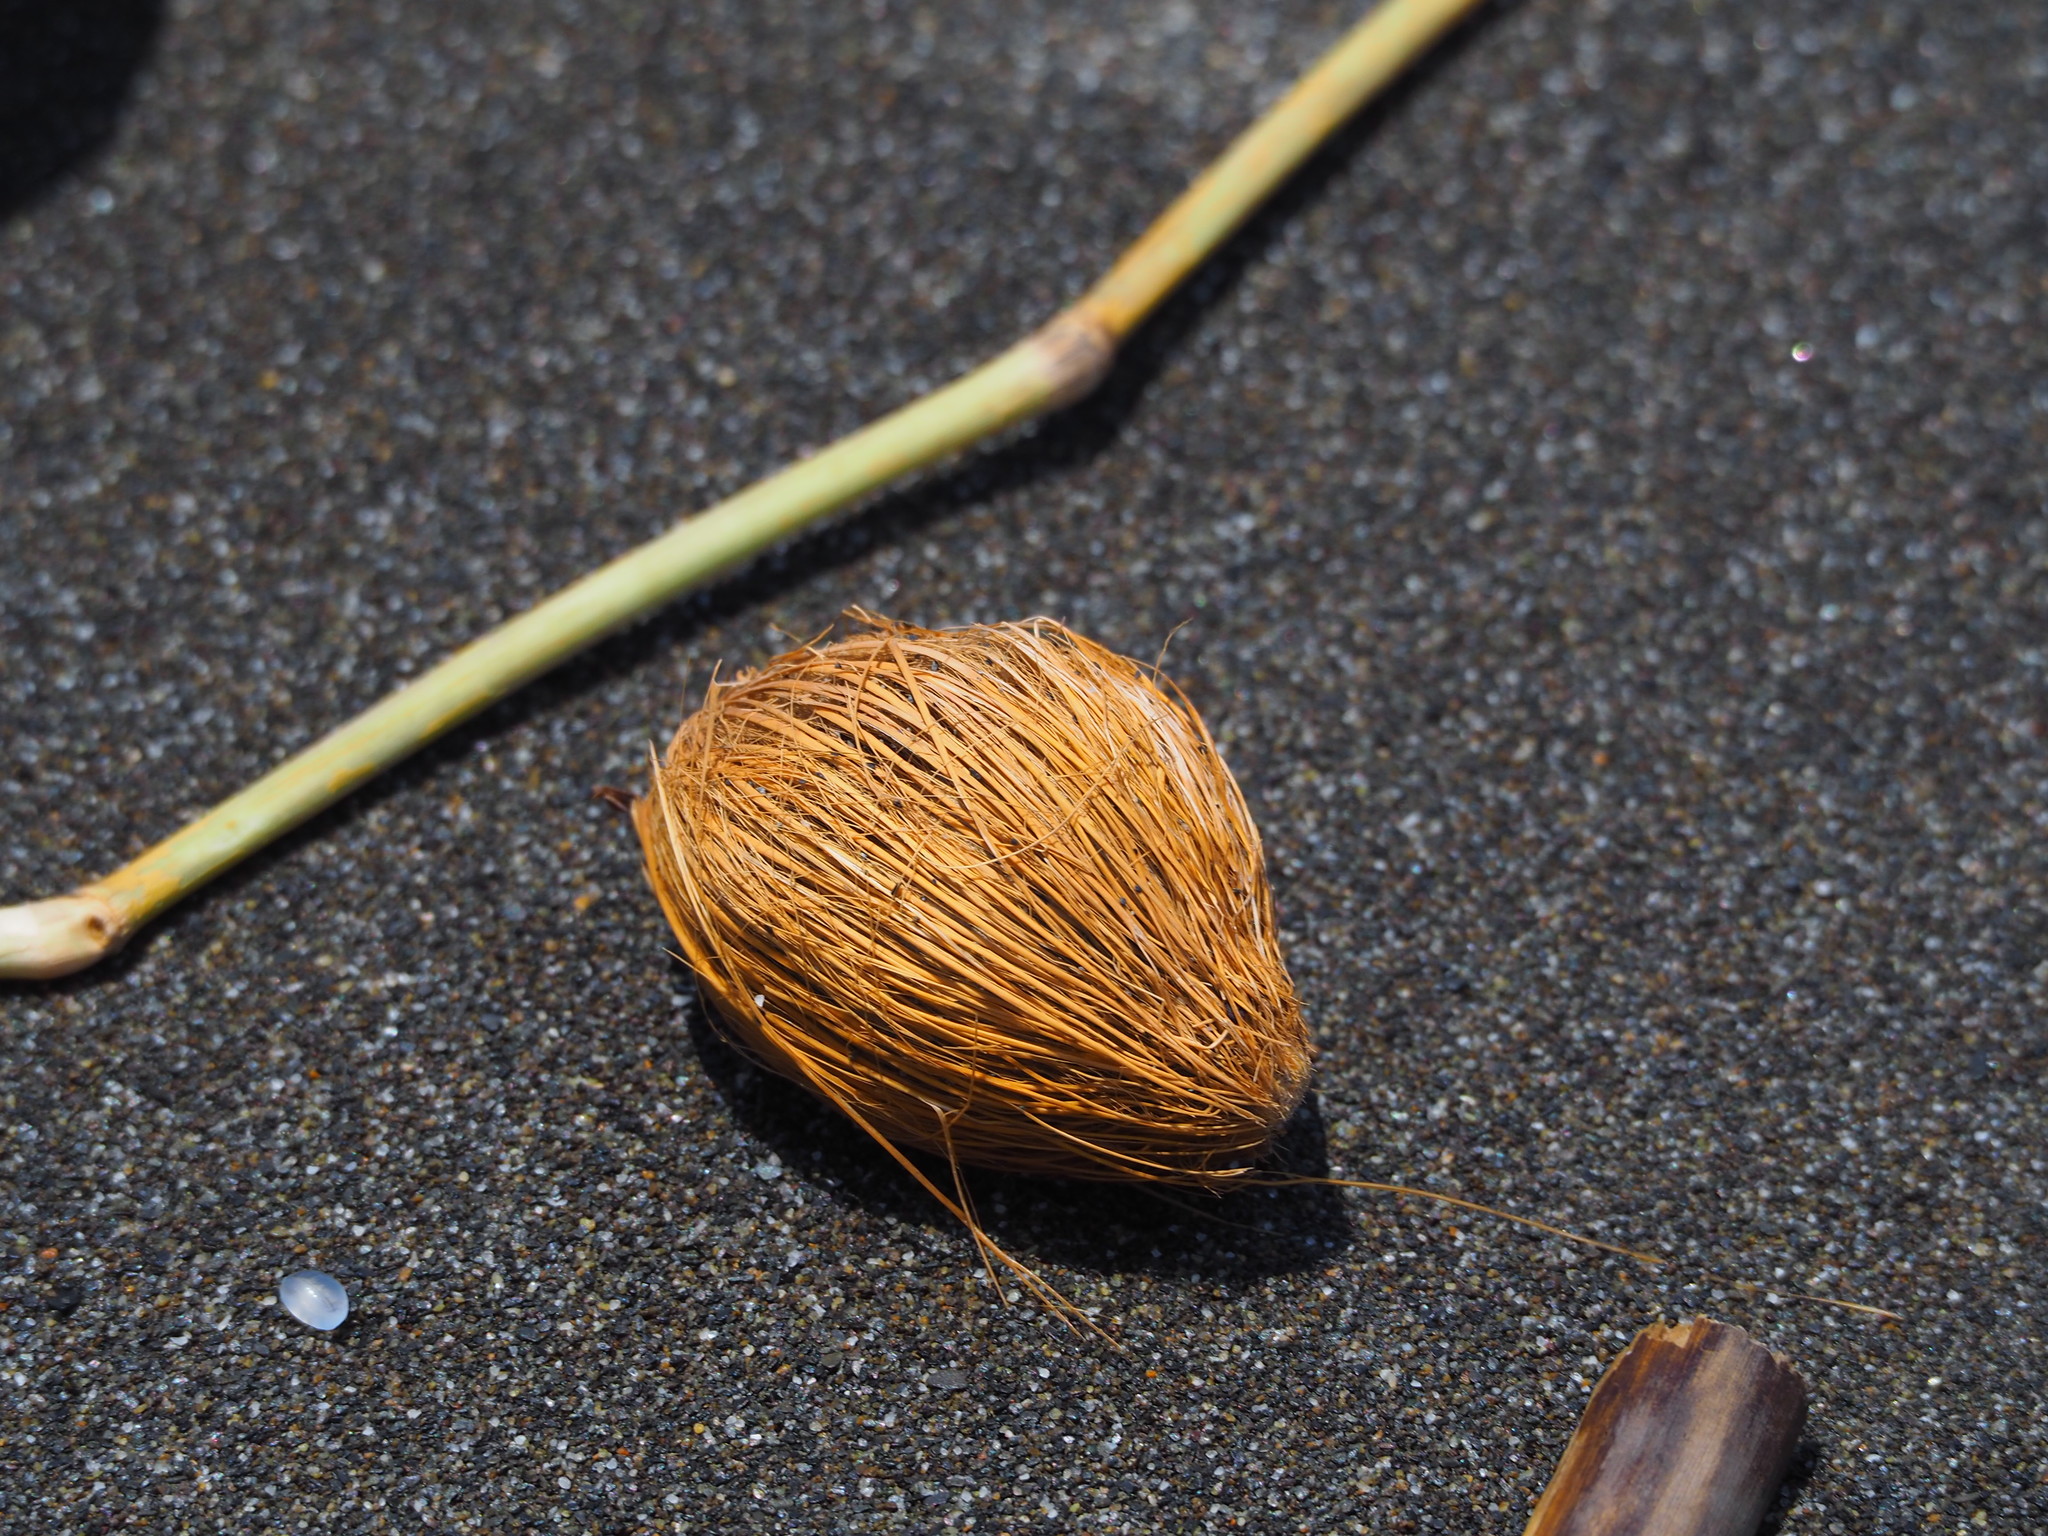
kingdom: Plantae
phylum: Tracheophyta
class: Magnoliopsida
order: Gentianales
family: Apocynaceae
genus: Cerbera
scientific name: Cerbera manghas
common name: Reva
